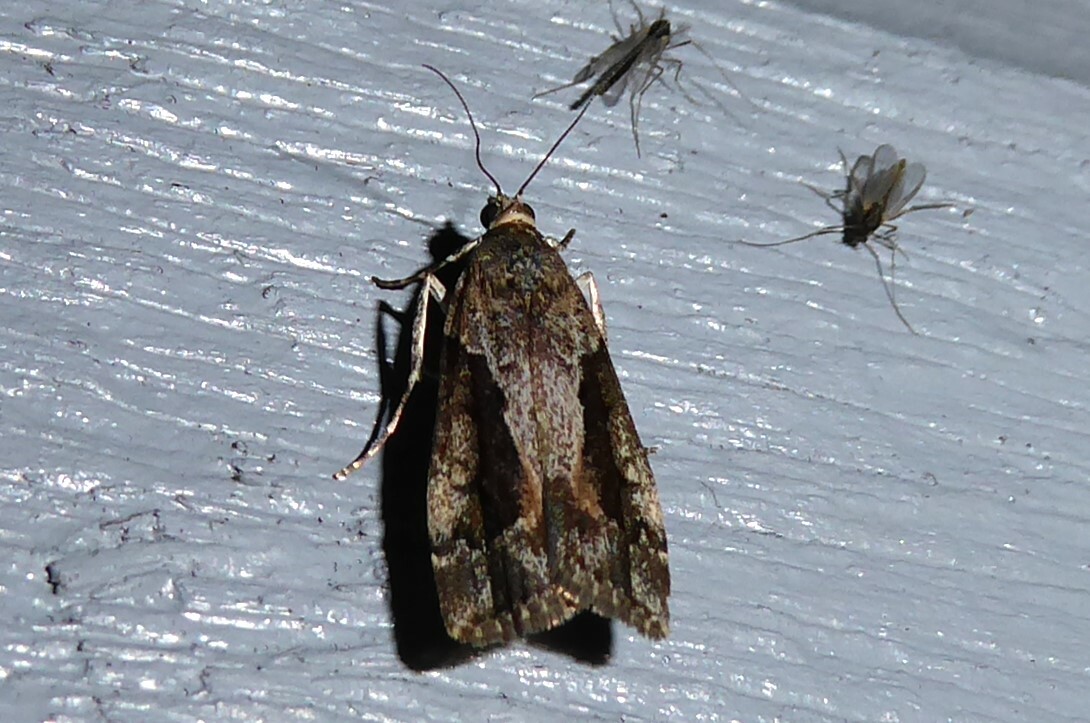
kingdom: Animalia
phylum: Arthropoda
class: Insecta
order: Lepidoptera
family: Crambidae
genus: Eudonia
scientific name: Eudonia submarginalis
